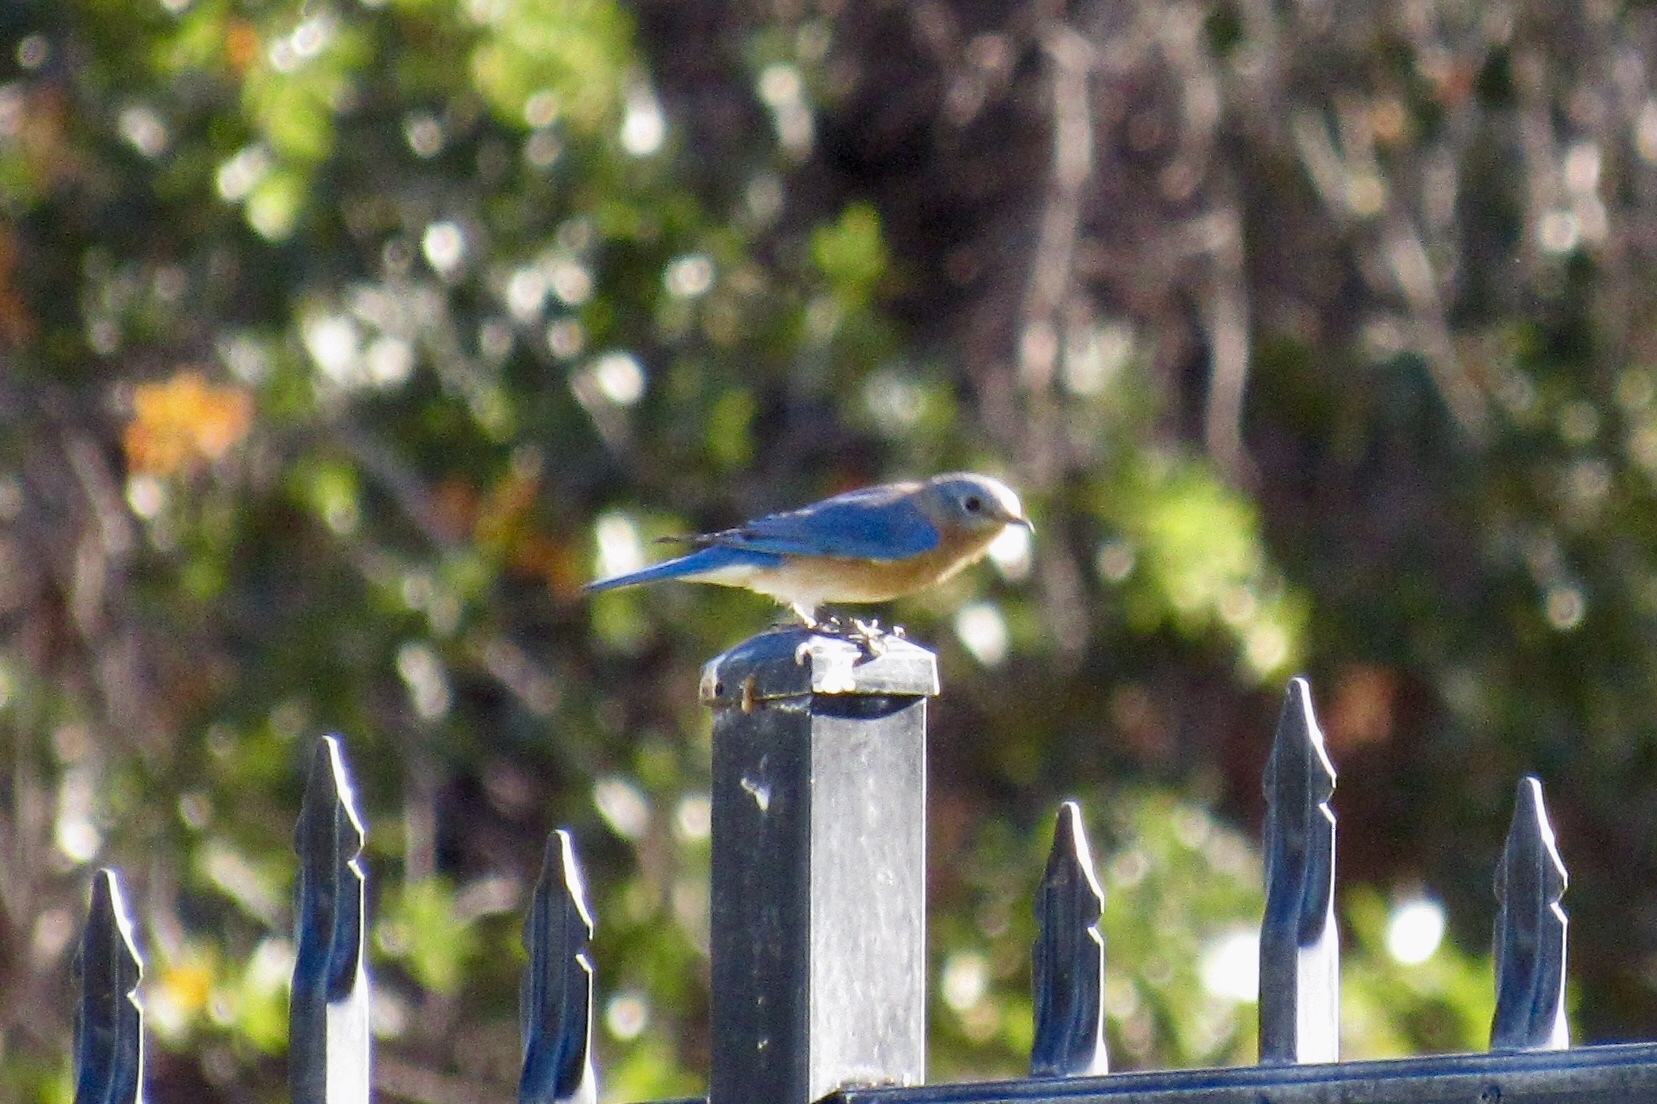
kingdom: Animalia
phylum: Chordata
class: Aves
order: Passeriformes
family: Turdidae
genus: Sialia
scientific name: Sialia sialis
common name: Eastern bluebird
